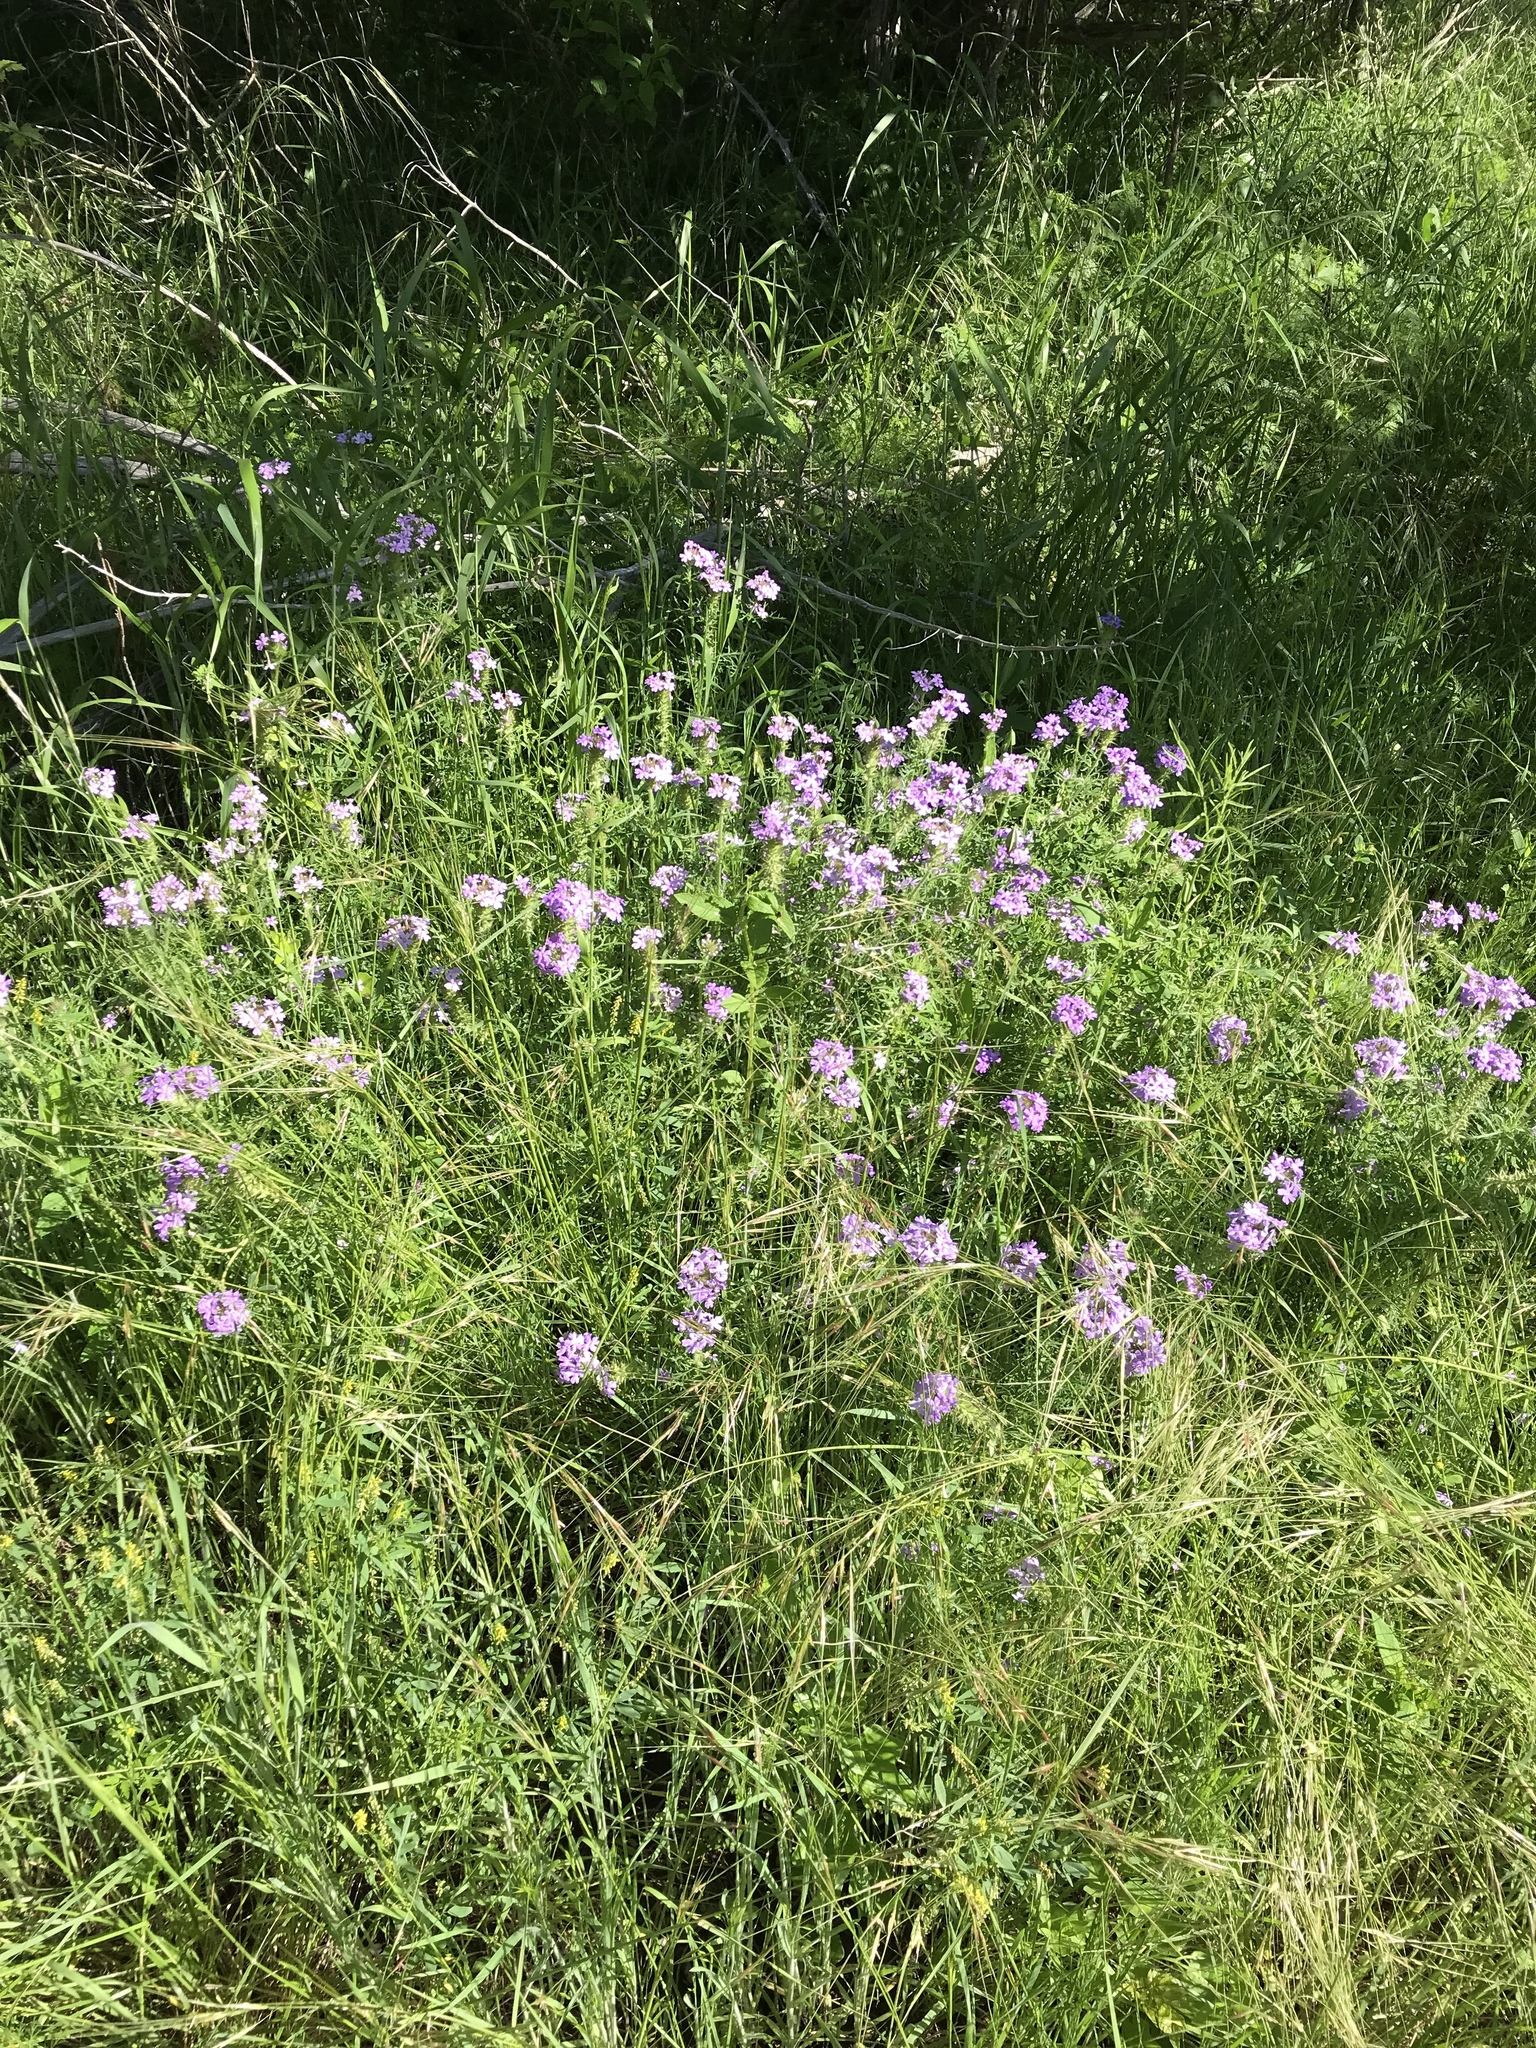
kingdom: Plantae
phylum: Tracheophyta
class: Magnoliopsida
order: Lamiales
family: Verbenaceae
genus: Verbena
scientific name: Verbena bipinnatifida
